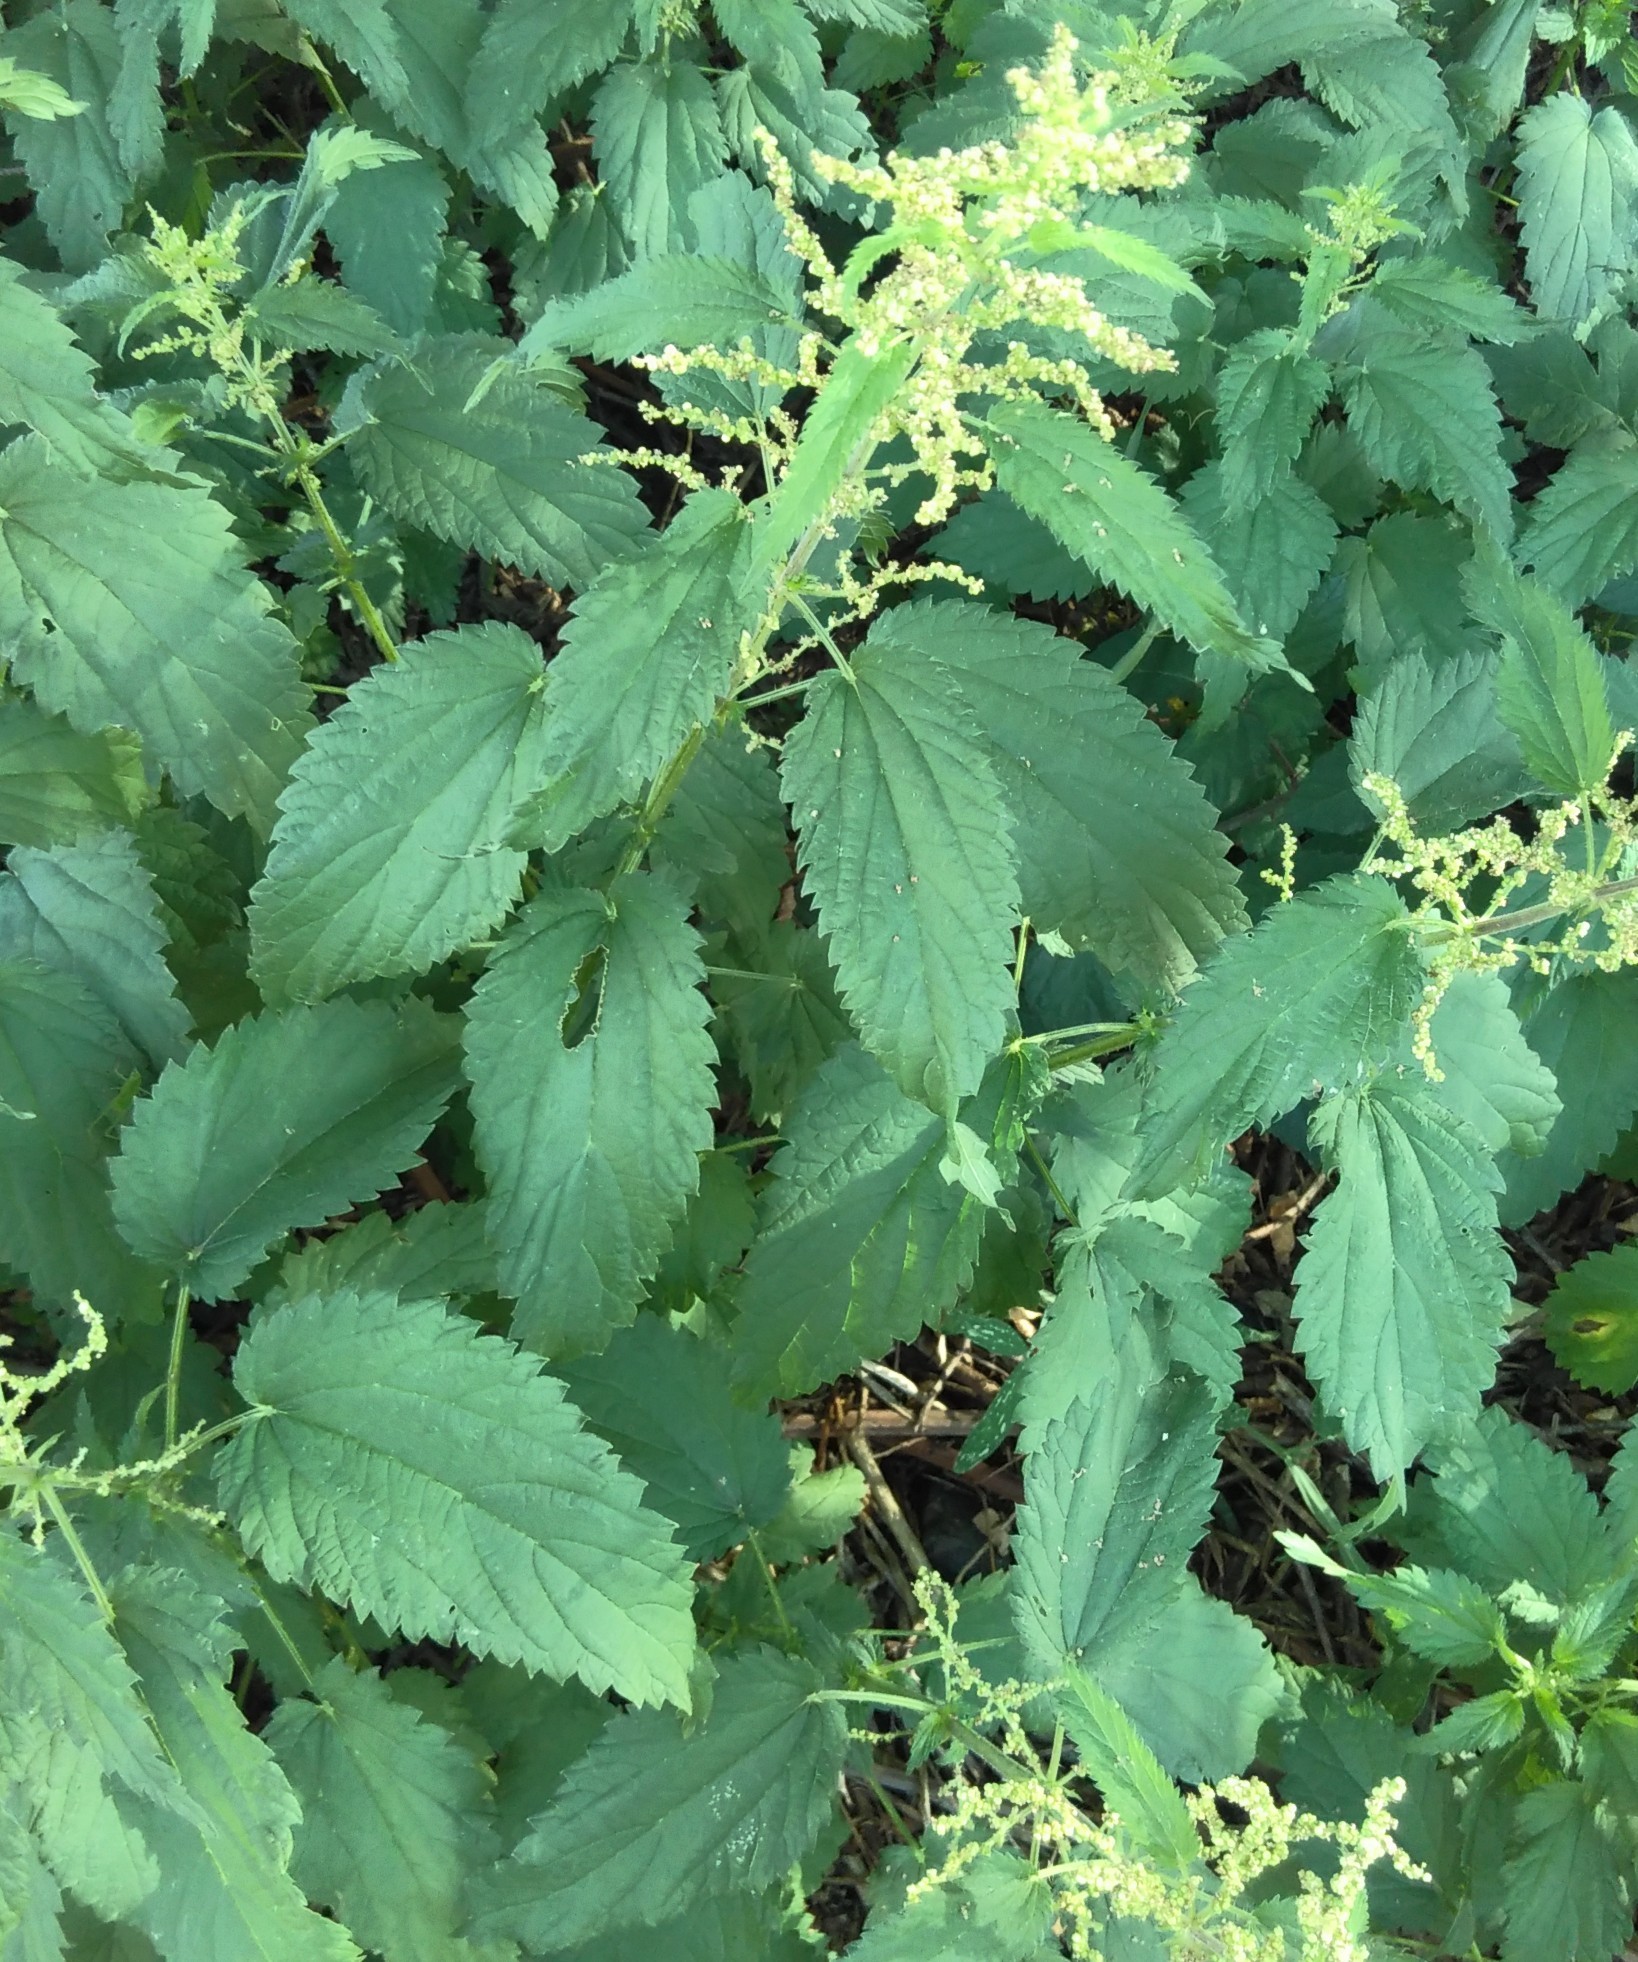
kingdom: Plantae
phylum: Tracheophyta
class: Magnoliopsida
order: Rosales
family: Urticaceae
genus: Urtica
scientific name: Urtica dioica
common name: Common nettle
